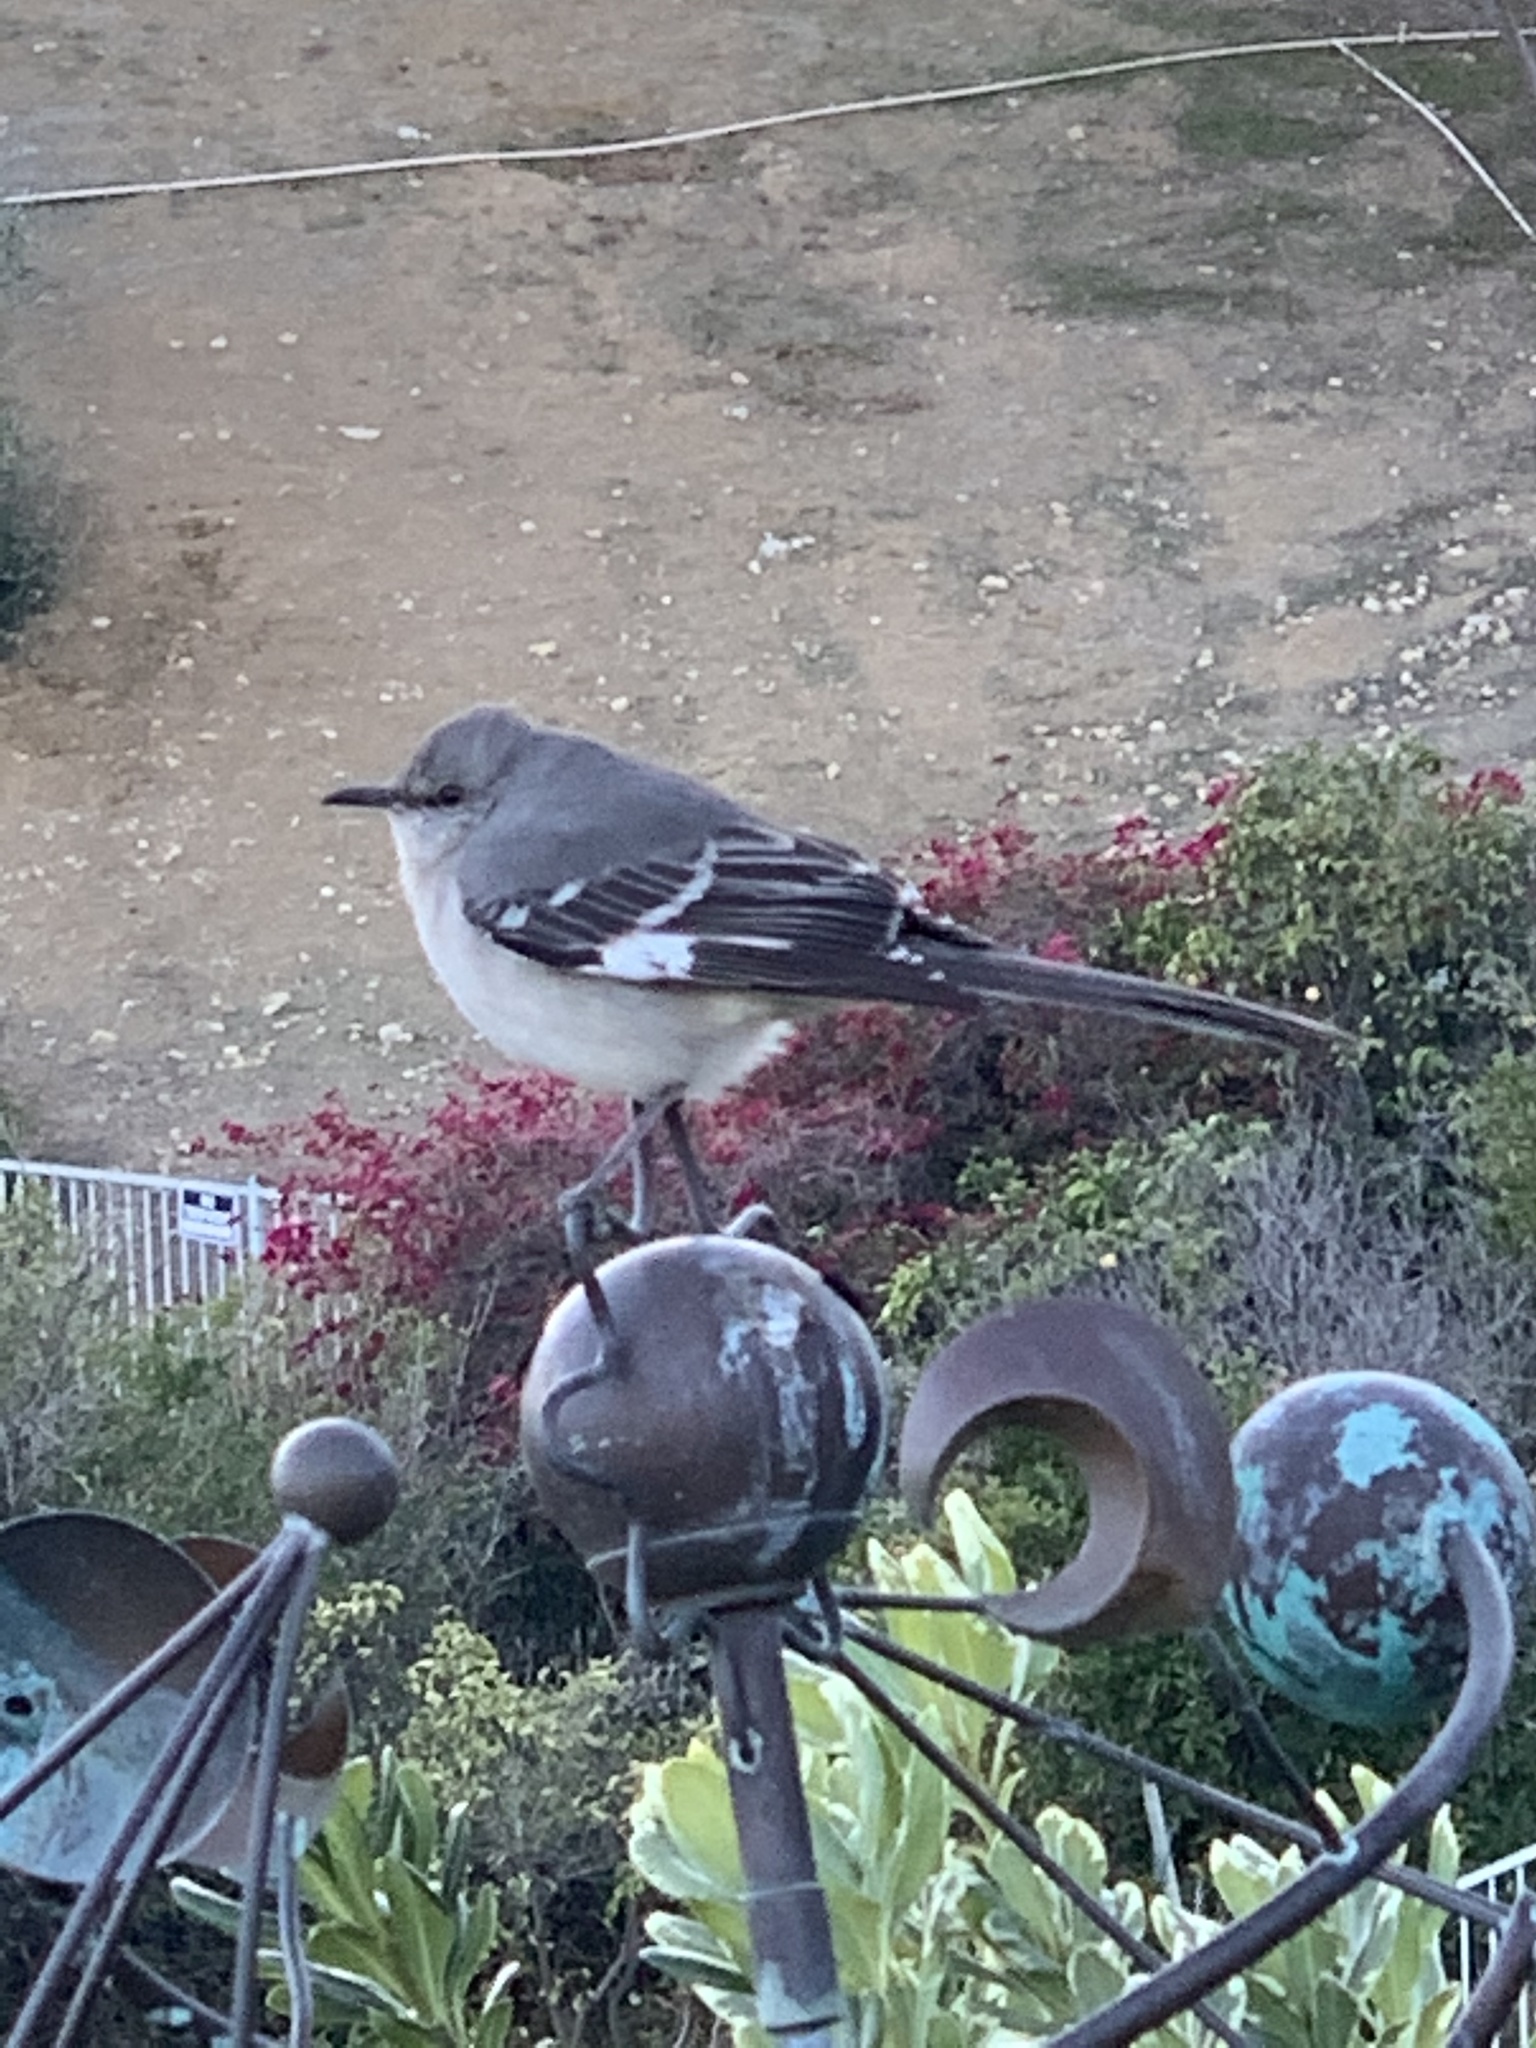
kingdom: Animalia
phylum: Chordata
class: Aves
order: Passeriformes
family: Mimidae
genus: Mimus
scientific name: Mimus polyglottos
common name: Northern mockingbird
